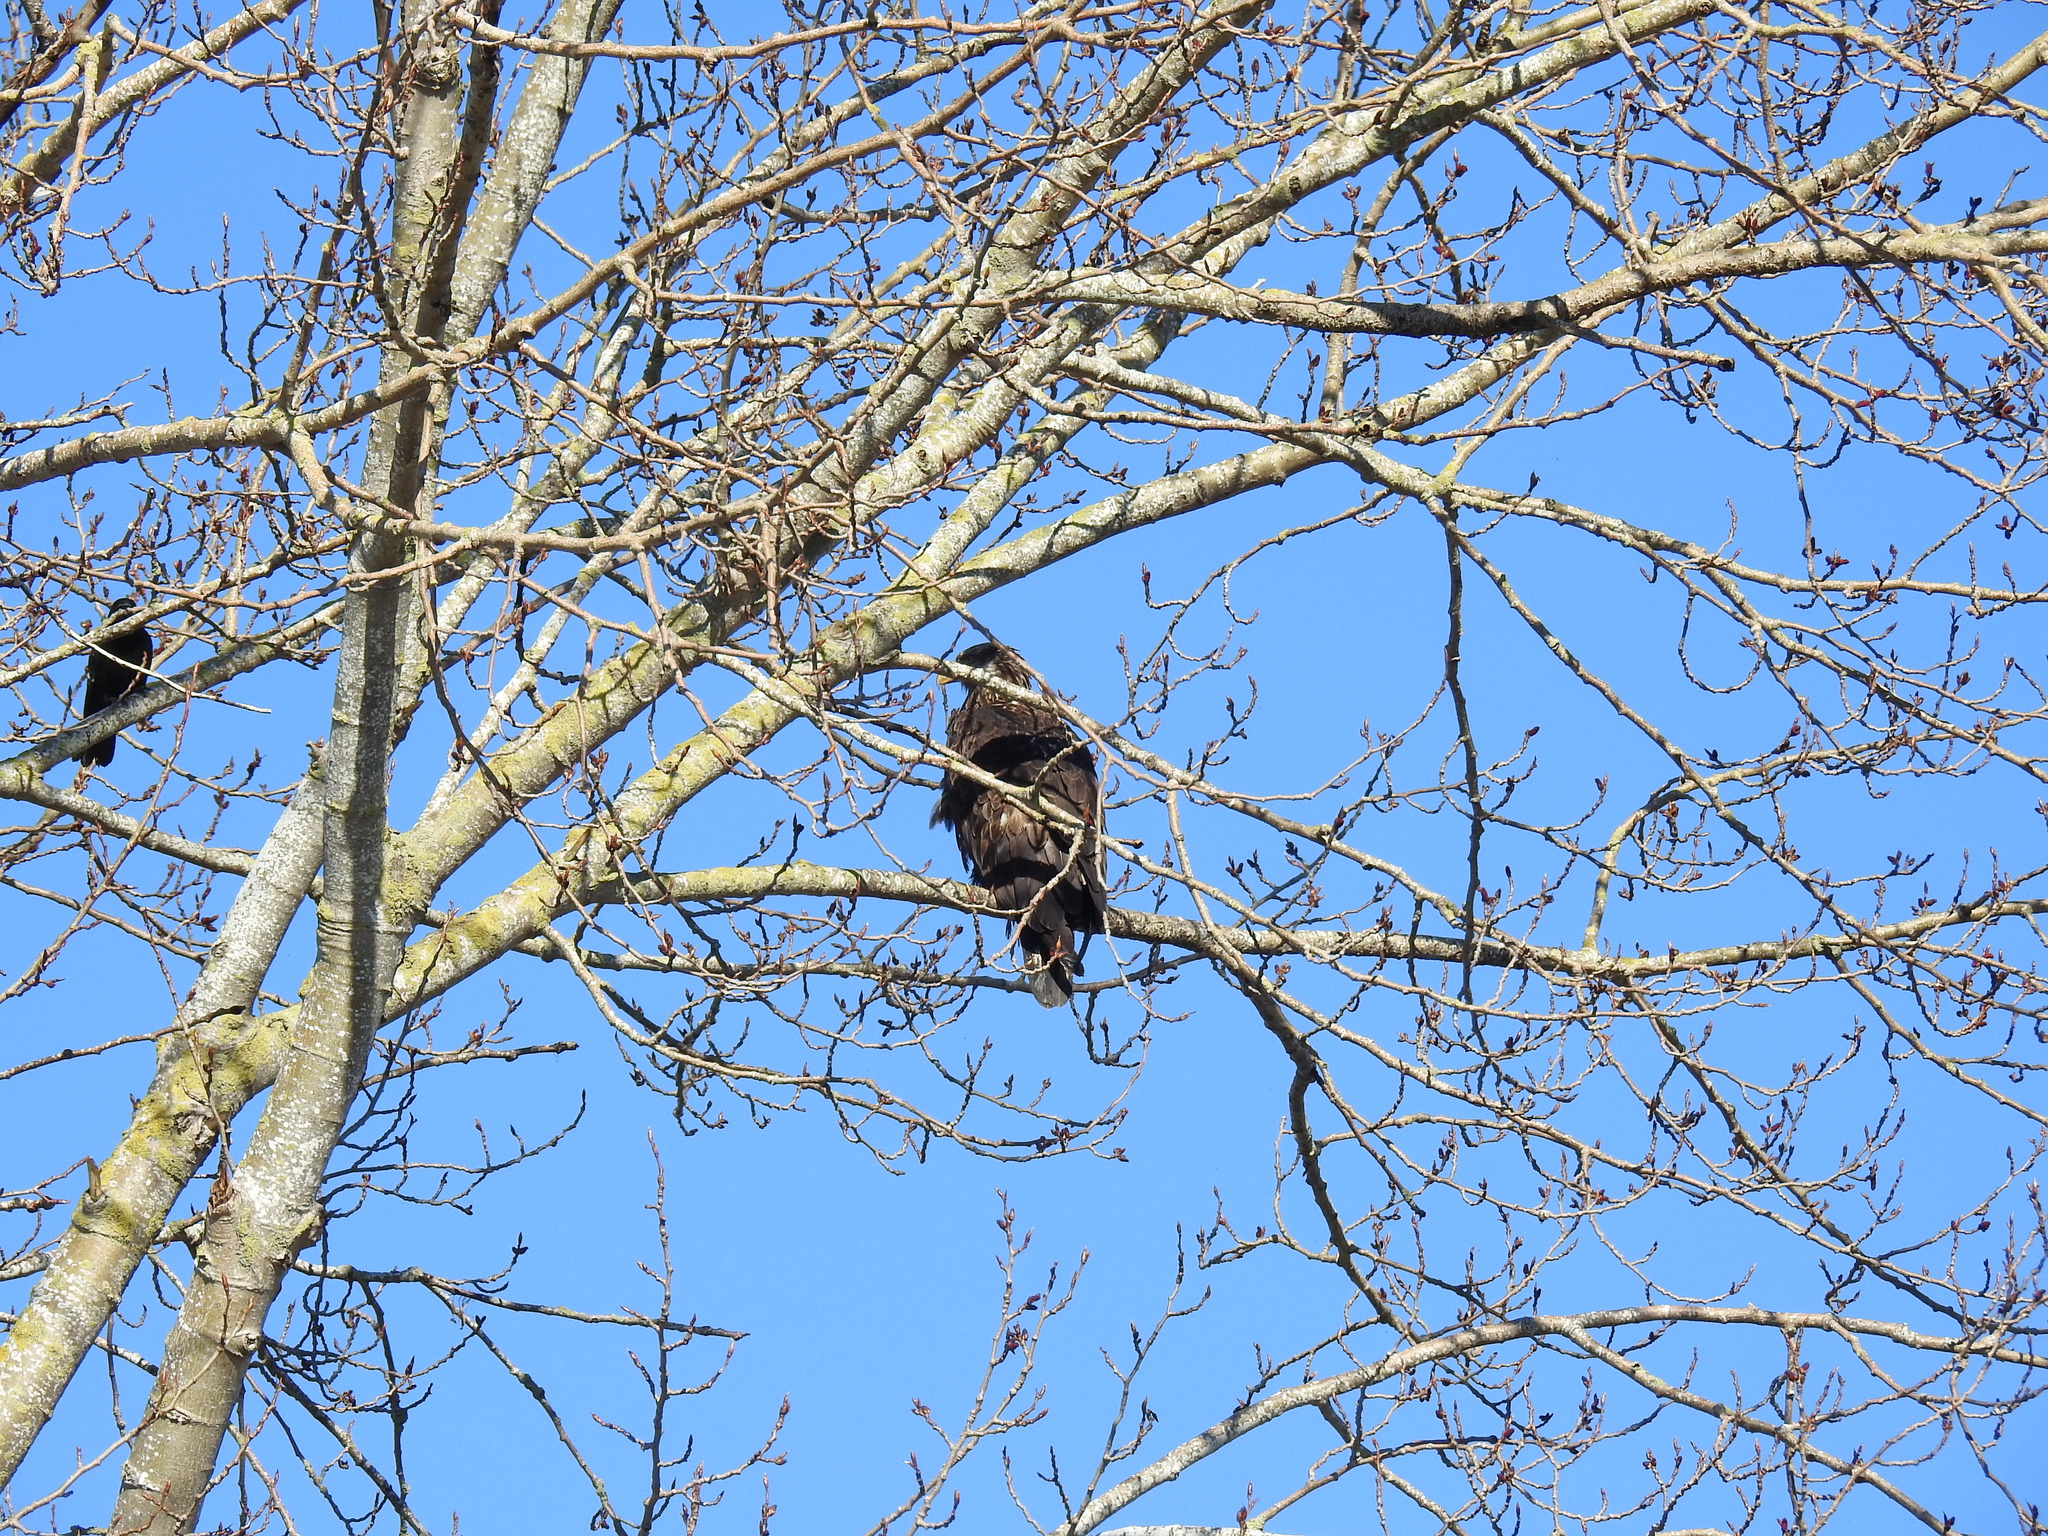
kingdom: Animalia
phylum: Chordata
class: Aves
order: Accipitriformes
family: Accipitridae
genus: Haliaeetus
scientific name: Haliaeetus leucocephalus
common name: Bald eagle
